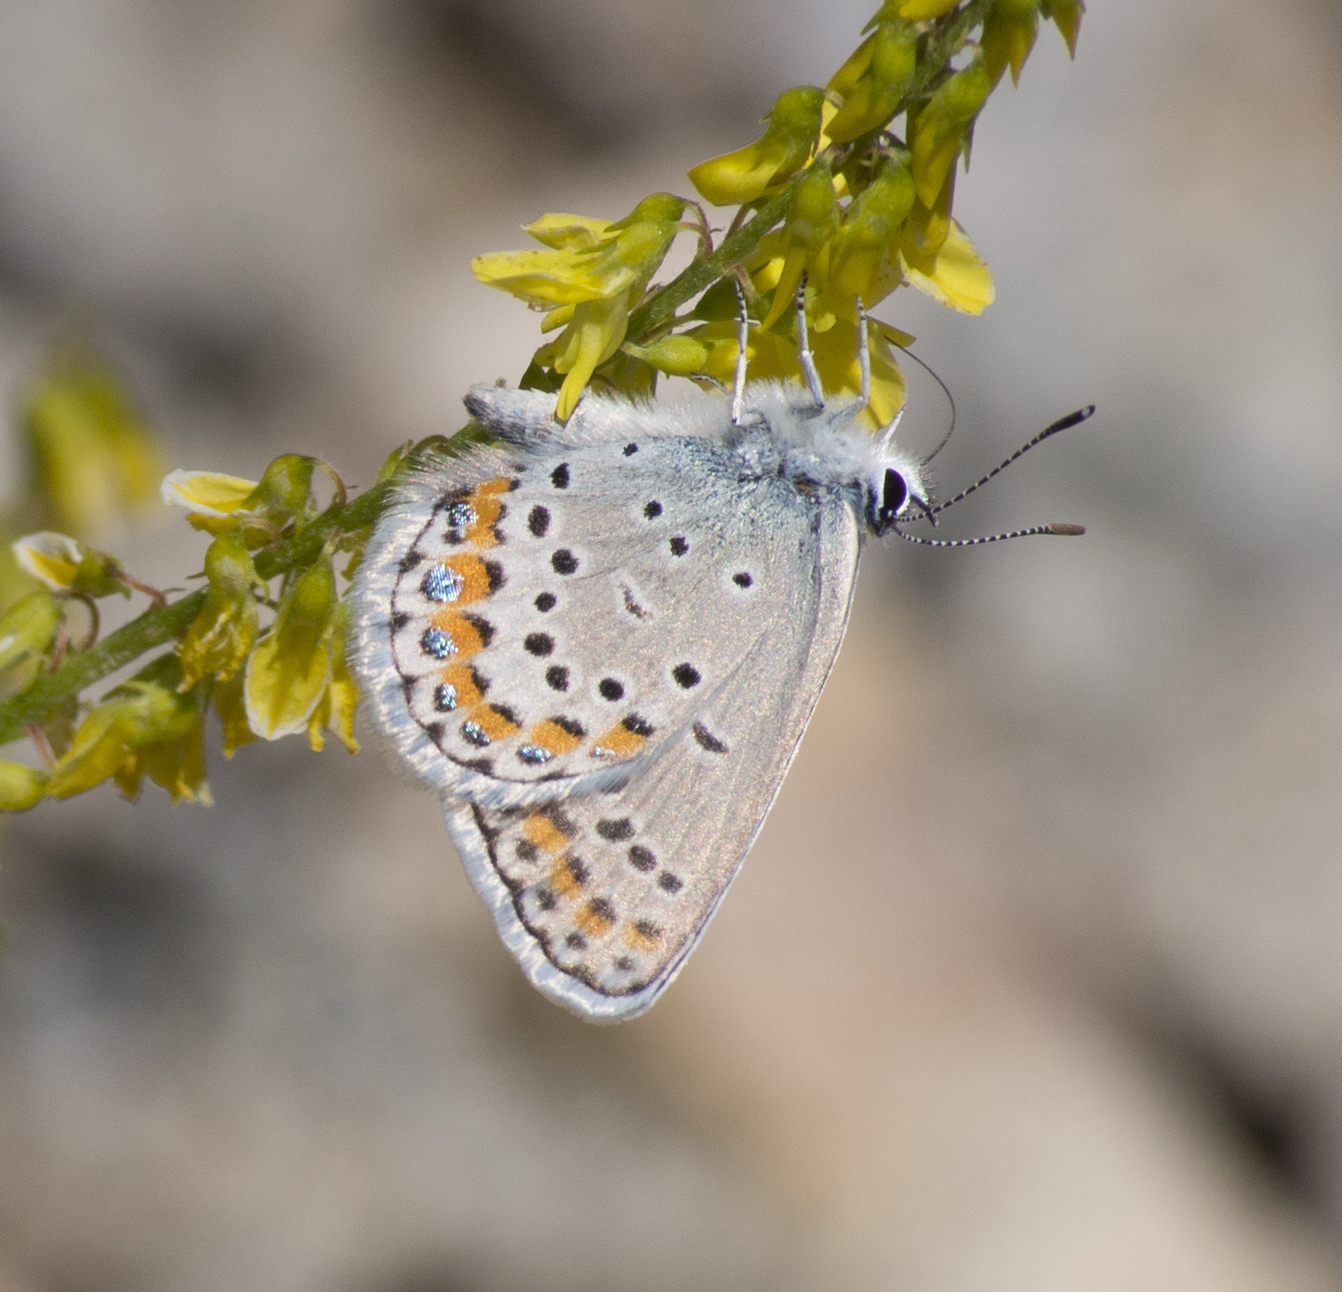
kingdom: Animalia
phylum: Arthropoda
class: Insecta
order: Lepidoptera
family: Lycaenidae
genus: Lycaeides
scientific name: Lycaeides melissa
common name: Melissa blue
